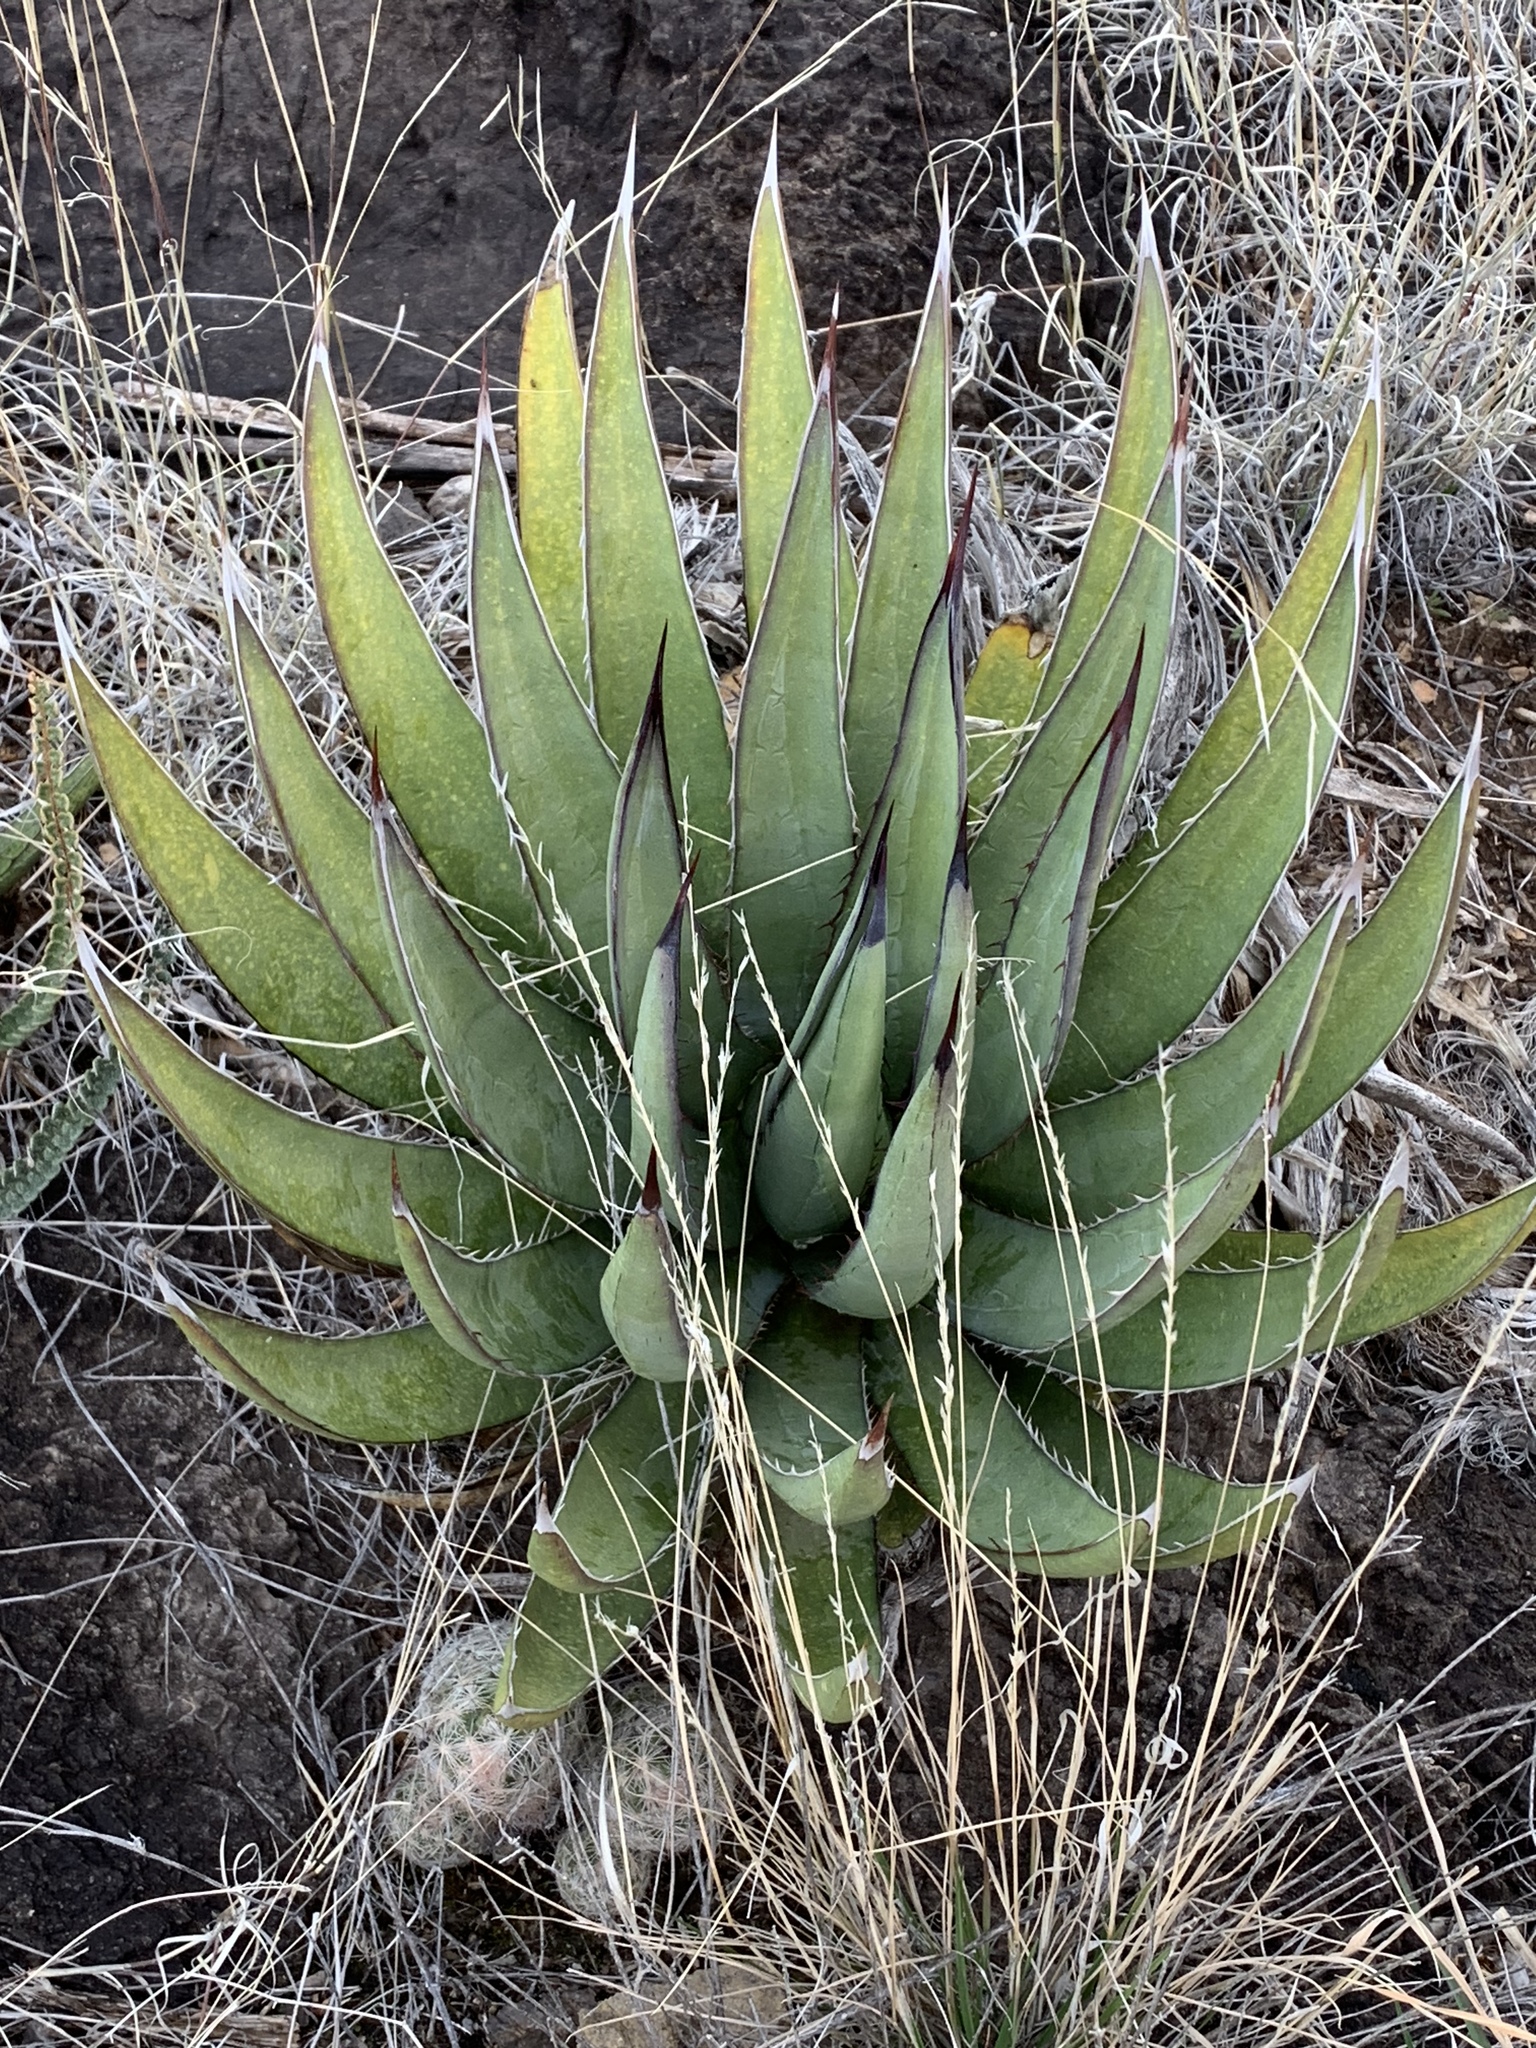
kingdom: Plantae
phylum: Tracheophyta
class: Liliopsida
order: Asparagales
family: Asparagaceae
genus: Agave
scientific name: Agave lechuguilla
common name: Lecheguilla agave
